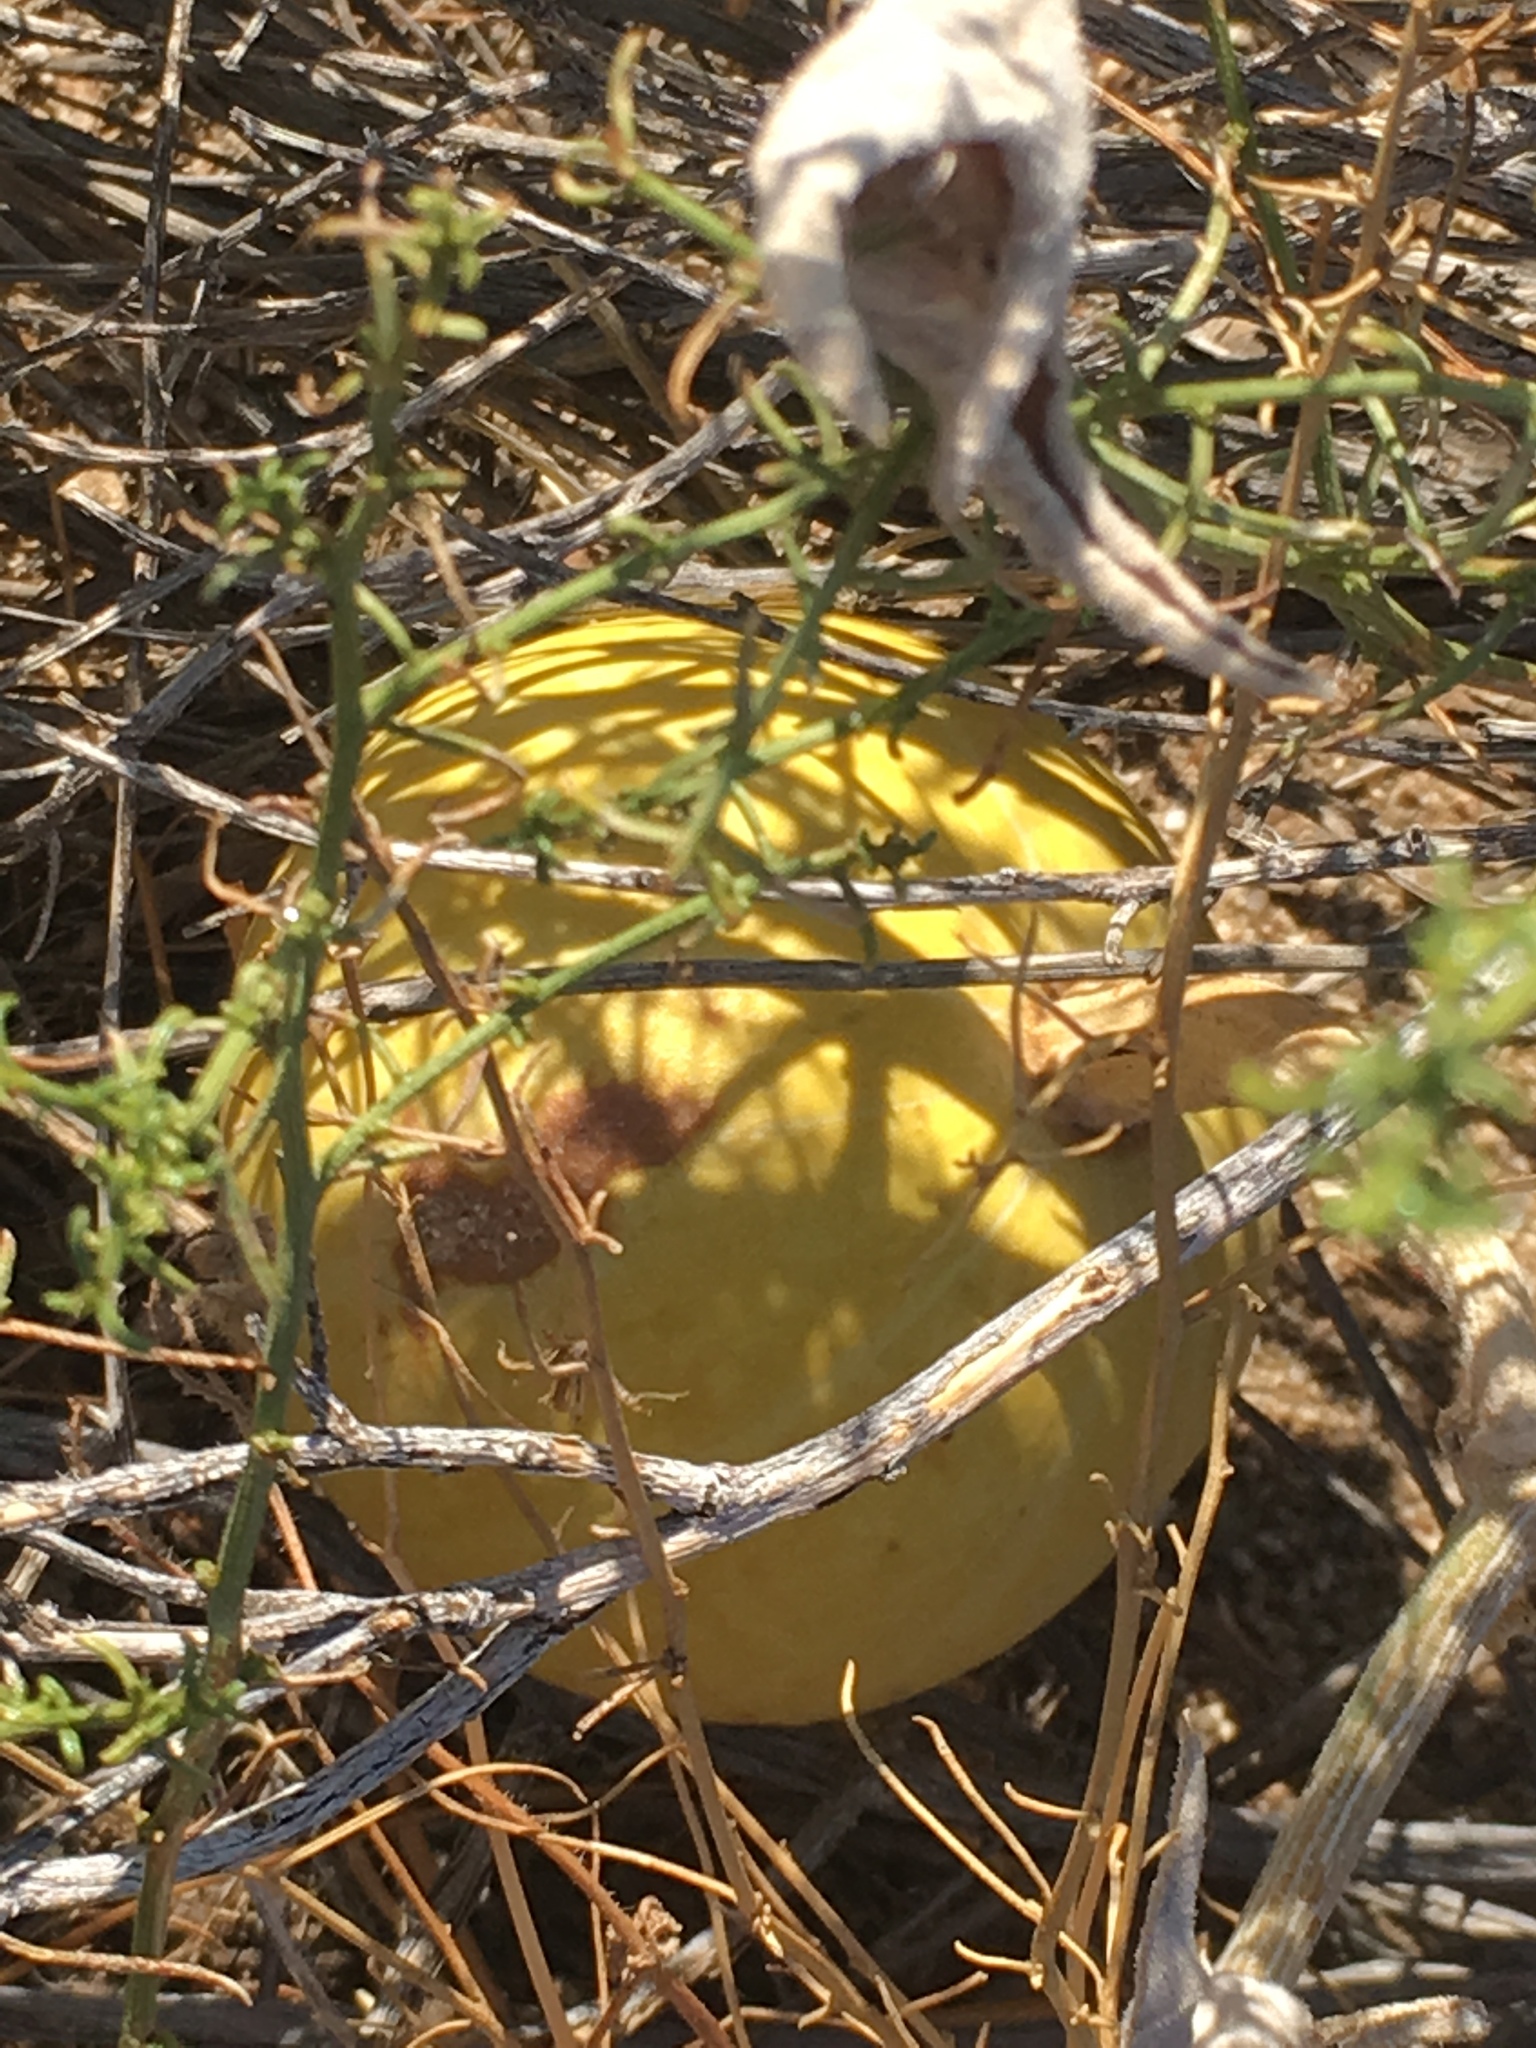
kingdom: Plantae
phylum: Tracheophyta
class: Magnoliopsida
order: Cucurbitales
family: Cucurbitaceae
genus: Cucurbita
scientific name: Cucurbita palmata
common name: Coyote-melon
